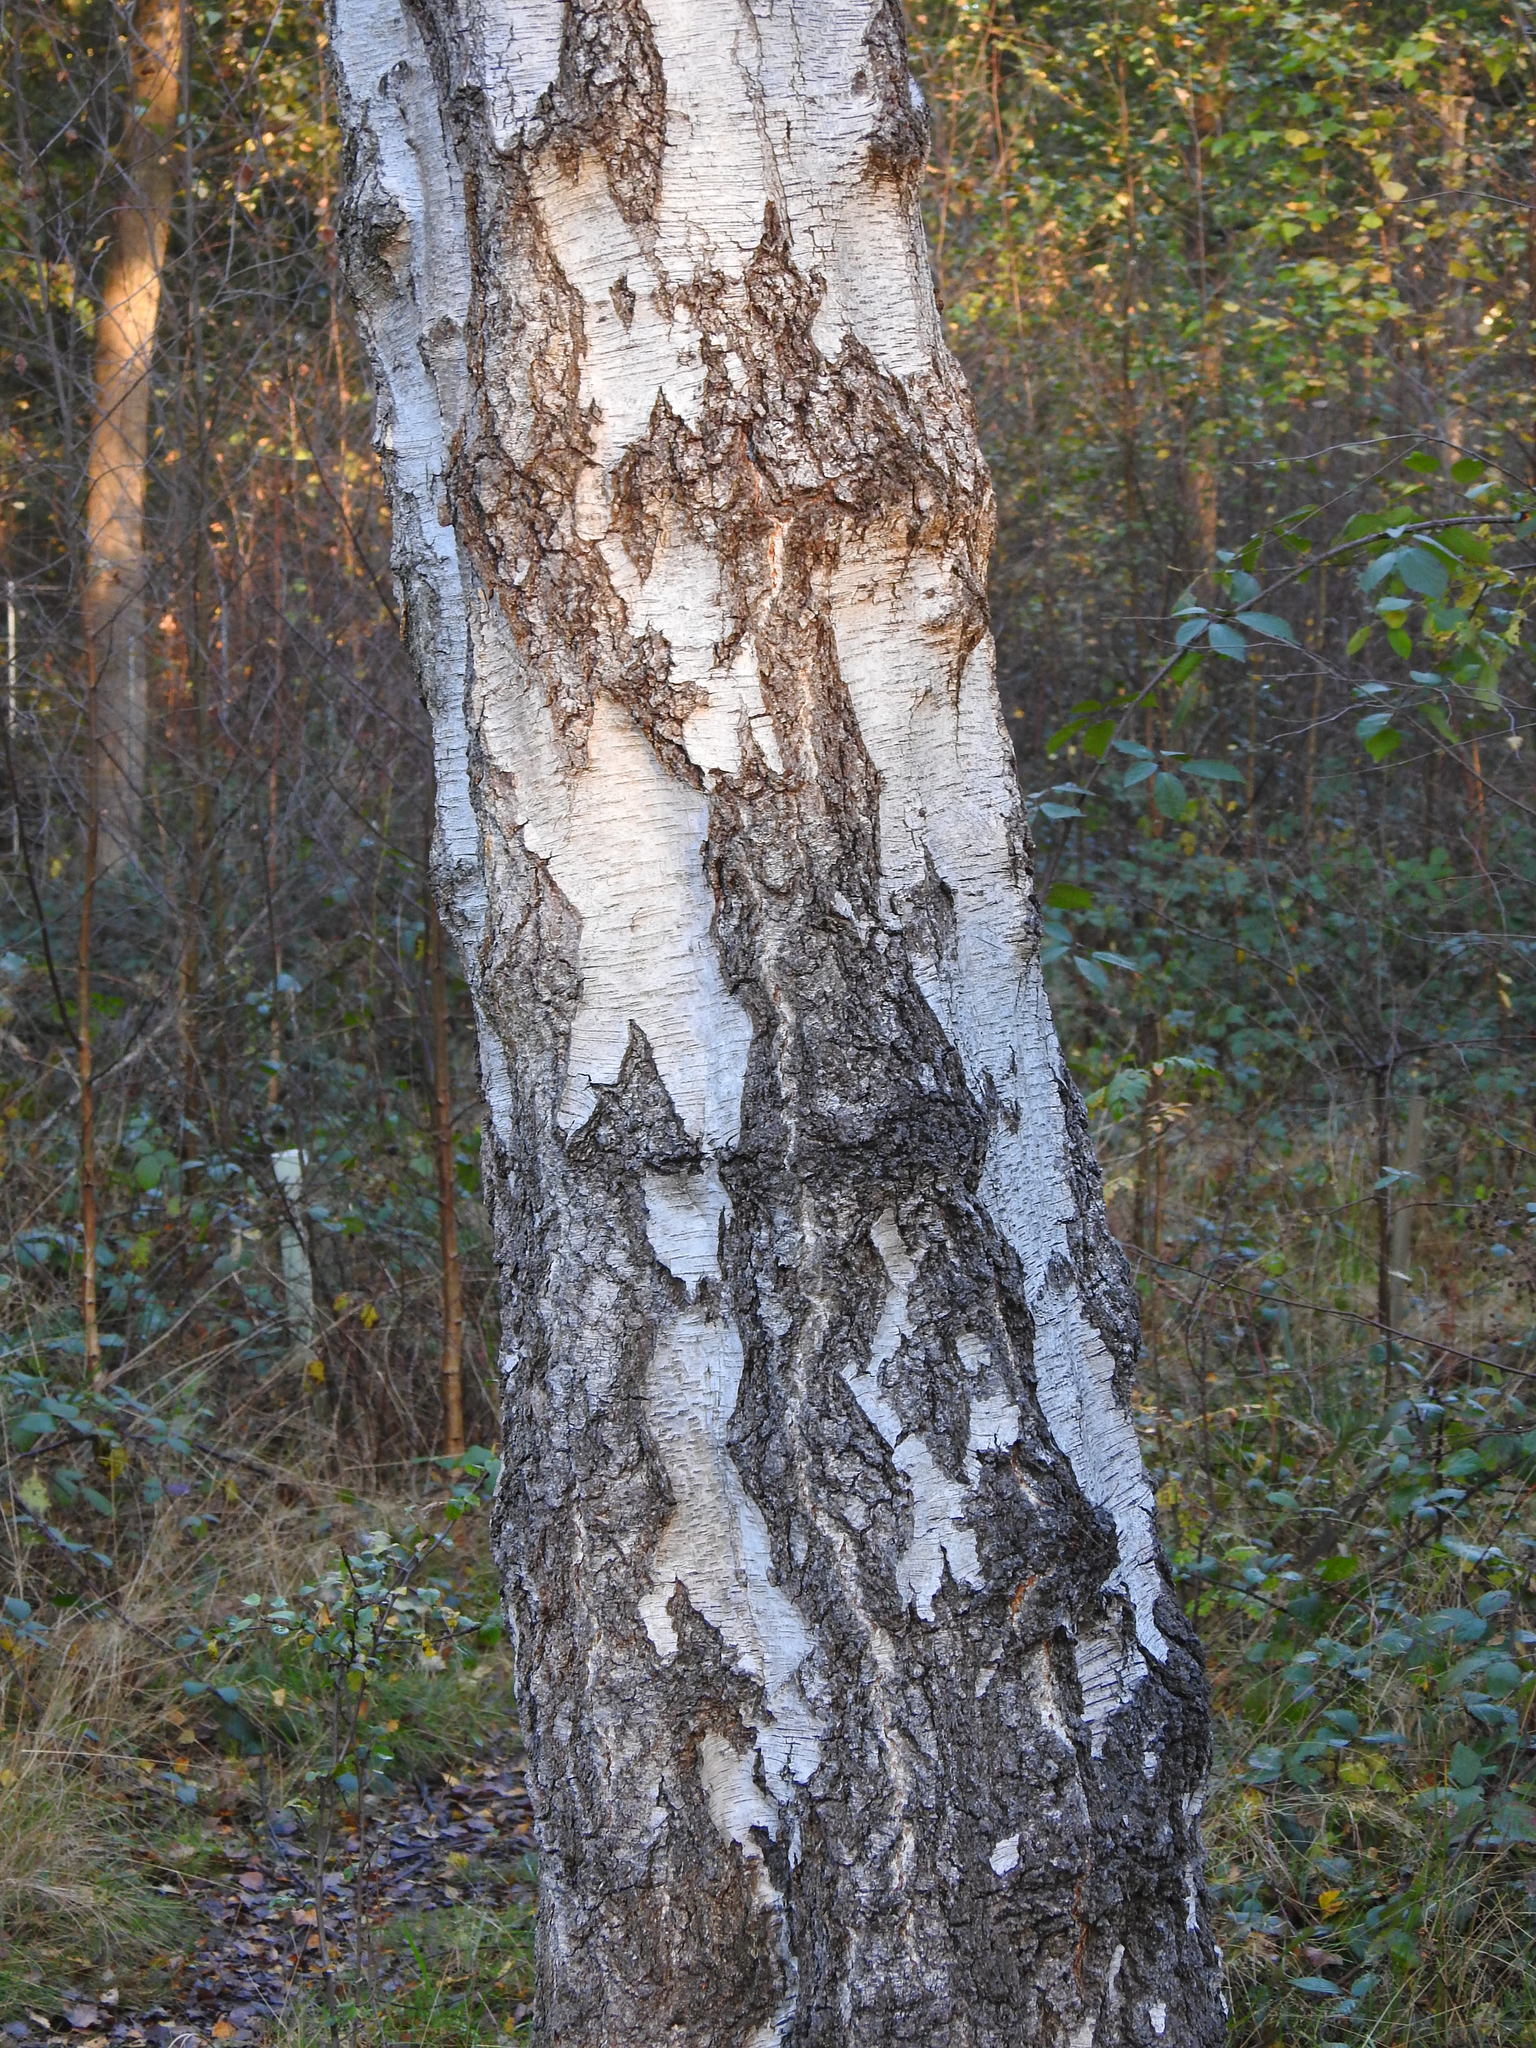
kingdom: Plantae
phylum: Tracheophyta
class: Magnoliopsida
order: Fagales
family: Betulaceae
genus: Betula
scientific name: Betula pendula
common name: Silver birch
